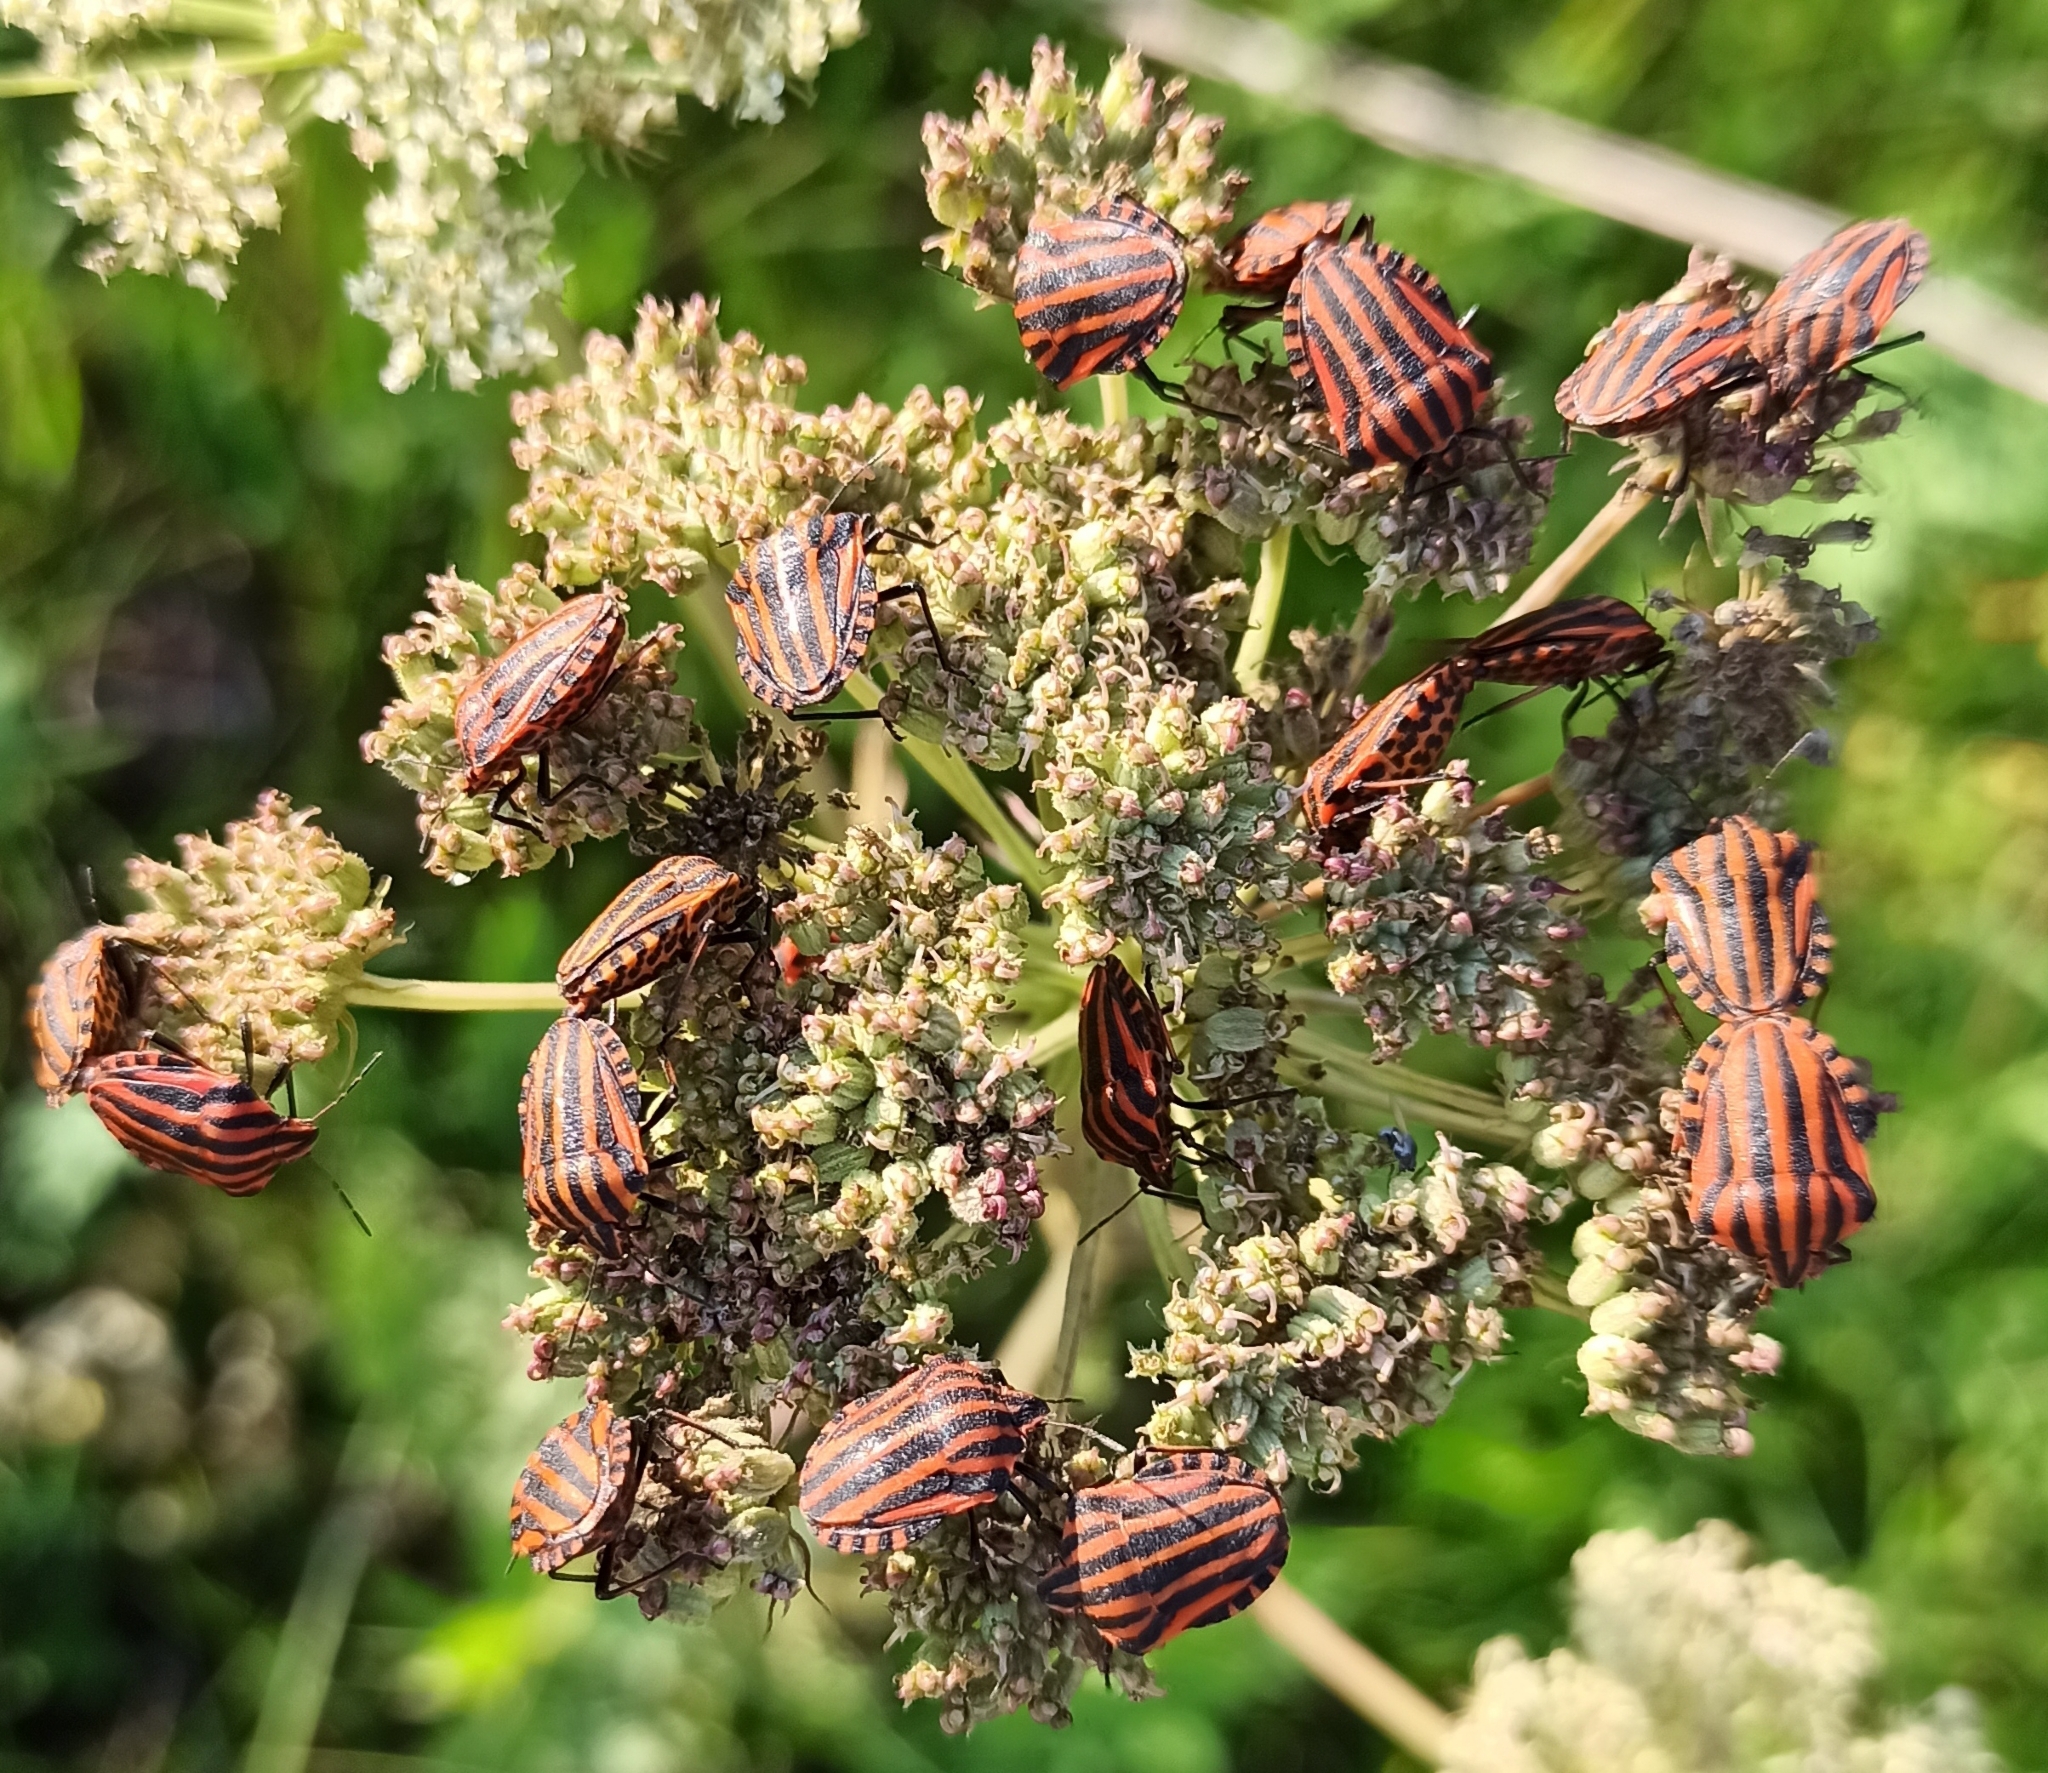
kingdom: Animalia
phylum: Arthropoda
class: Insecta
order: Hemiptera
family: Pentatomidae
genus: Graphosoma
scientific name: Graphosoma italicum
